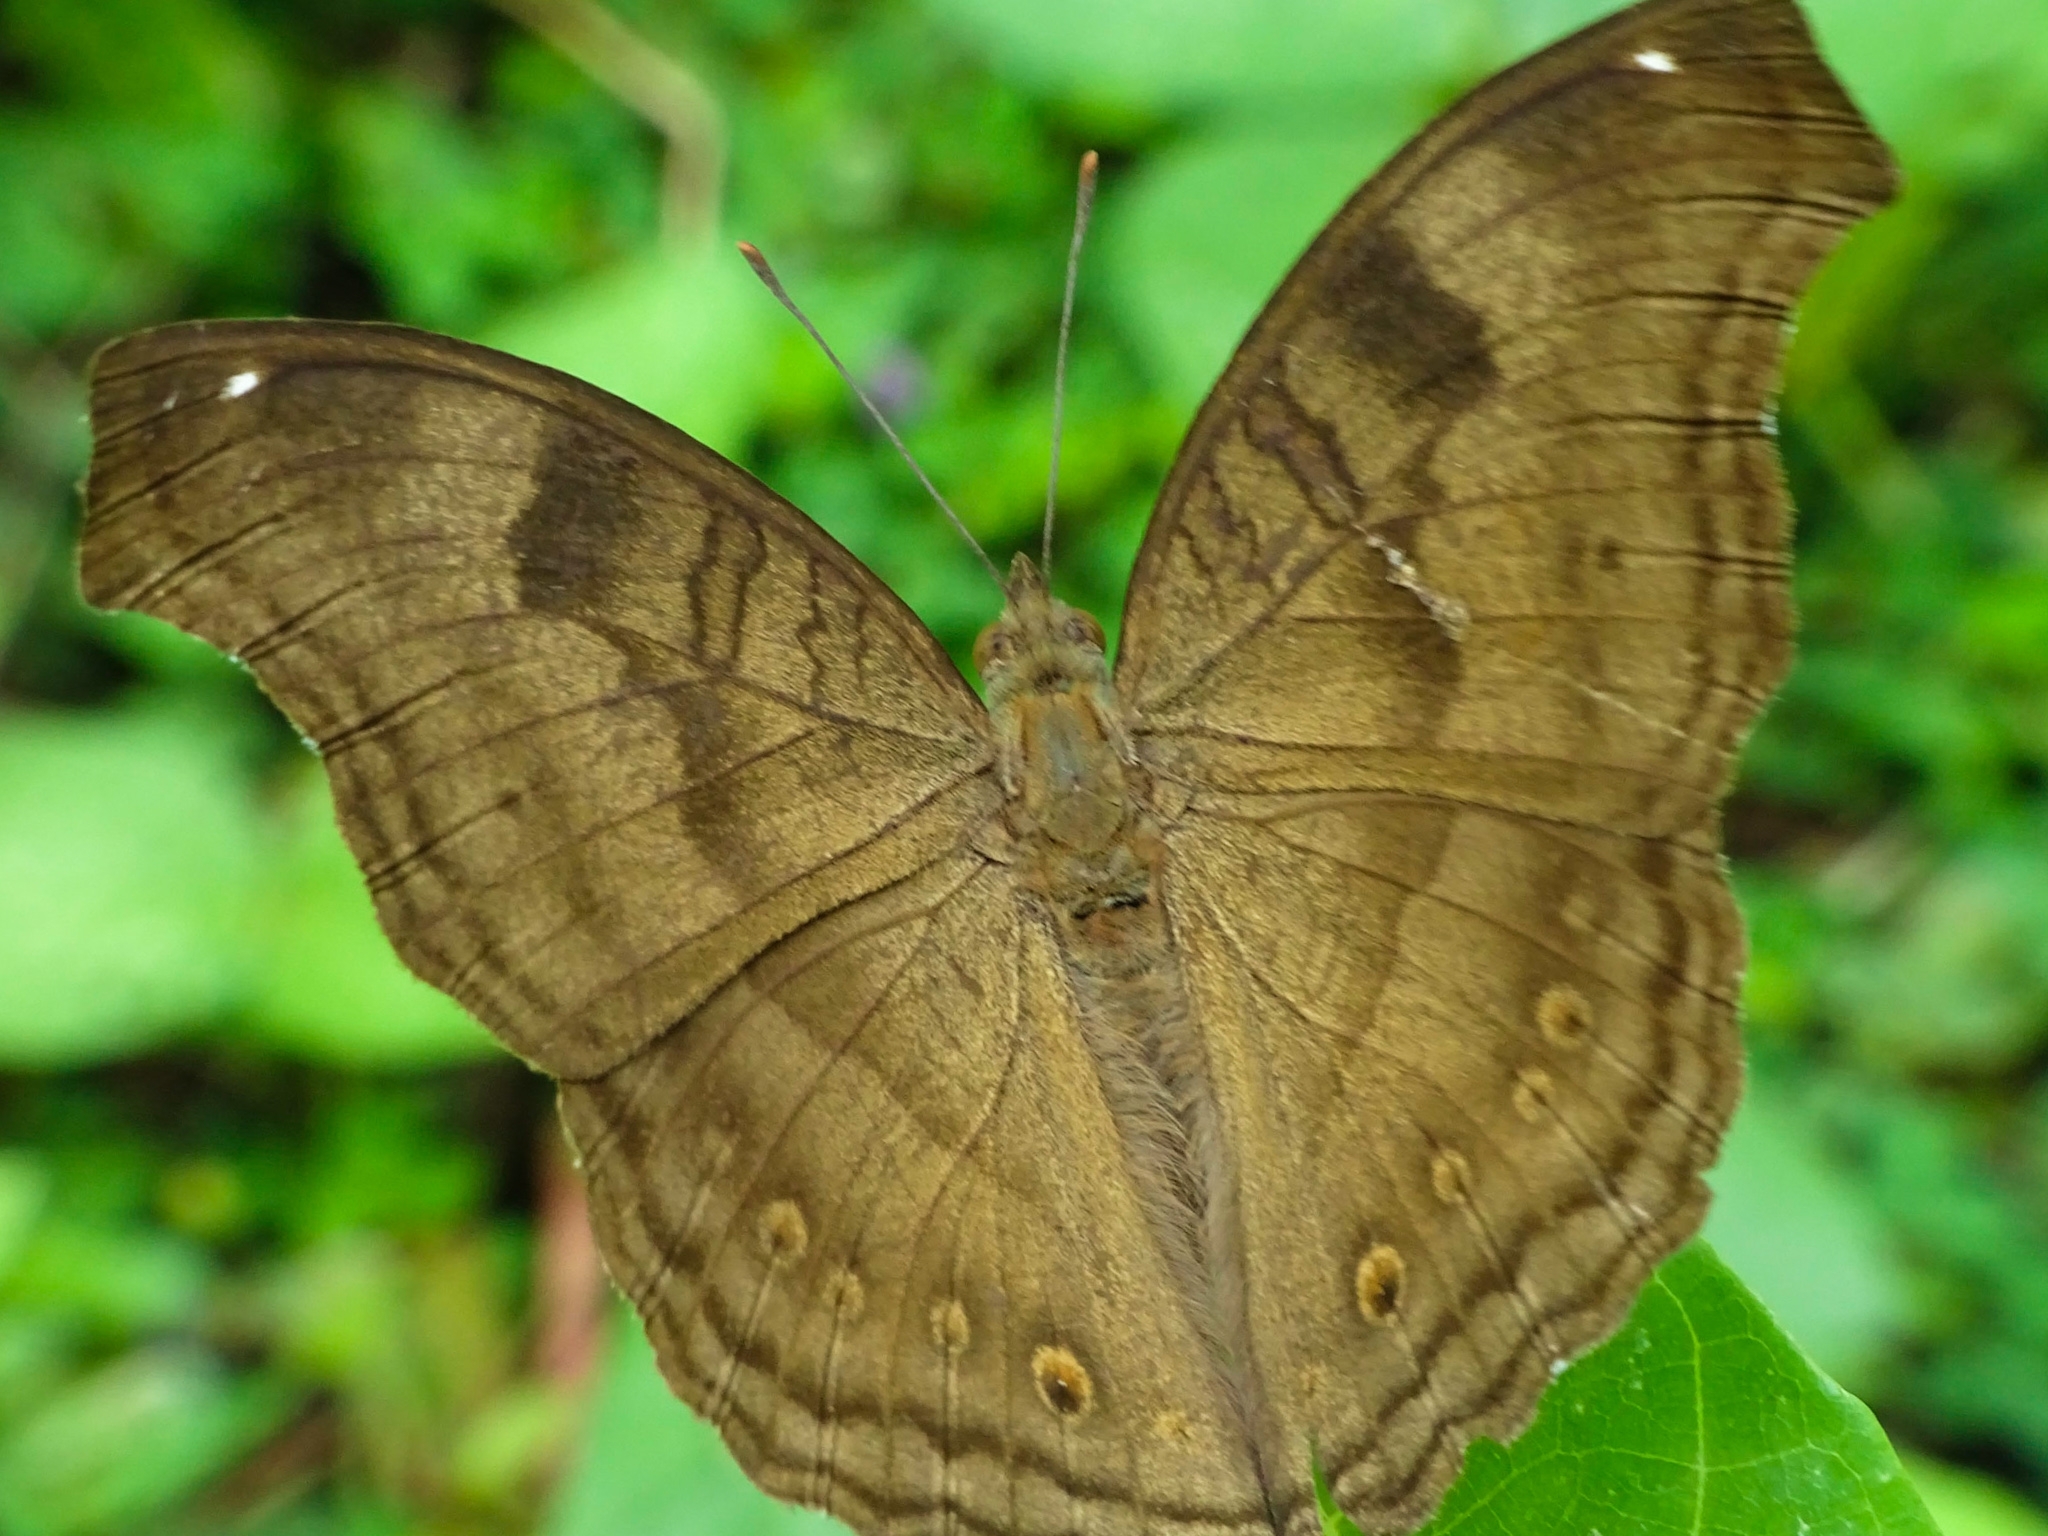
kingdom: Animalia
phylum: Arthropoda
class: Insecta
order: Lepidoptera
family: Nymphalidae
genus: Junonia
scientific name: Junonia iphita
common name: Chocolate pansy
